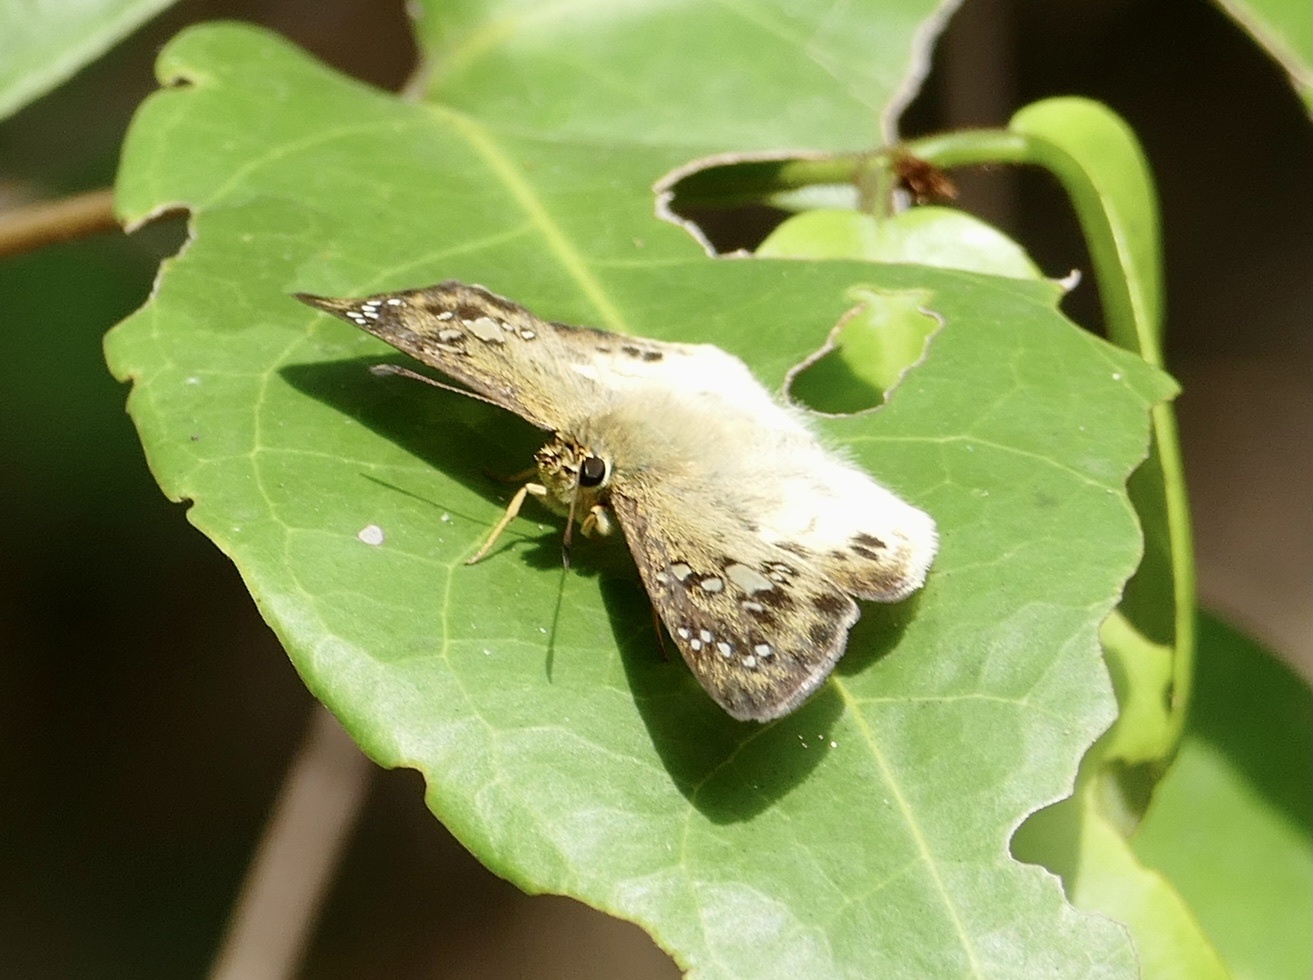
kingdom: Animalia
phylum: Arthropoda
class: Insecta
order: Lepidoptera
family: Hesperiidae
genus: Tagiades
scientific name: Tagiades flesus
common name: Clouded flat
